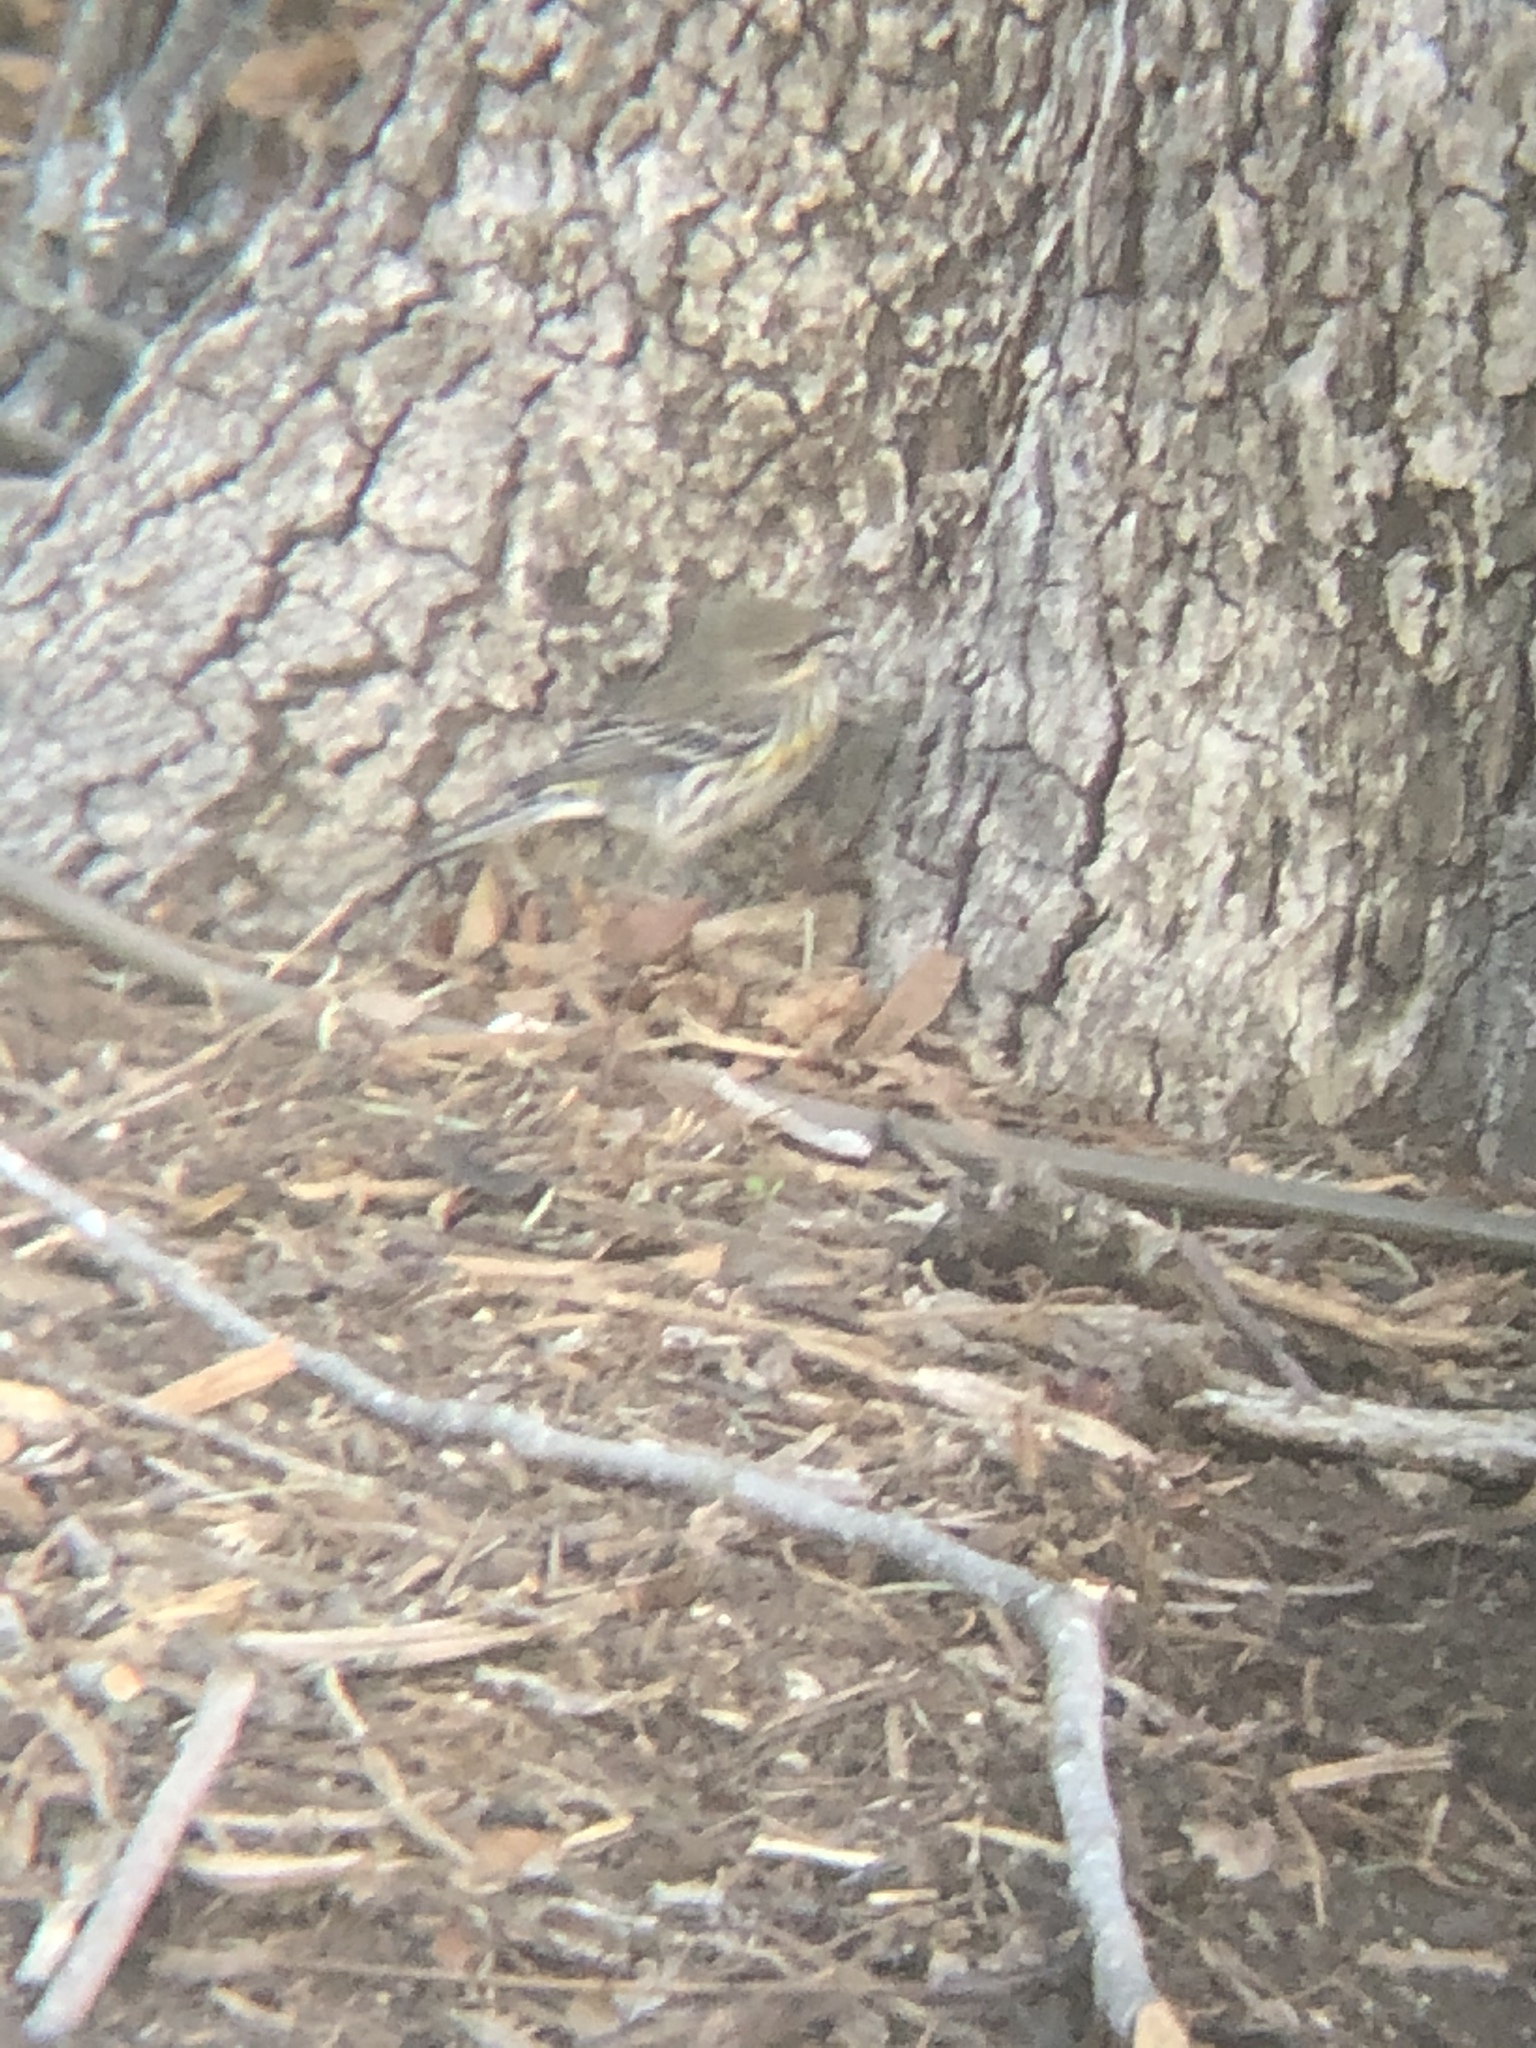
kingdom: Animalia
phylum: Chordata
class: Aves
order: Passeriformes
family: Parulidae
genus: Setophaga
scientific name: Setophaga coronata
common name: Myrtle warbler
